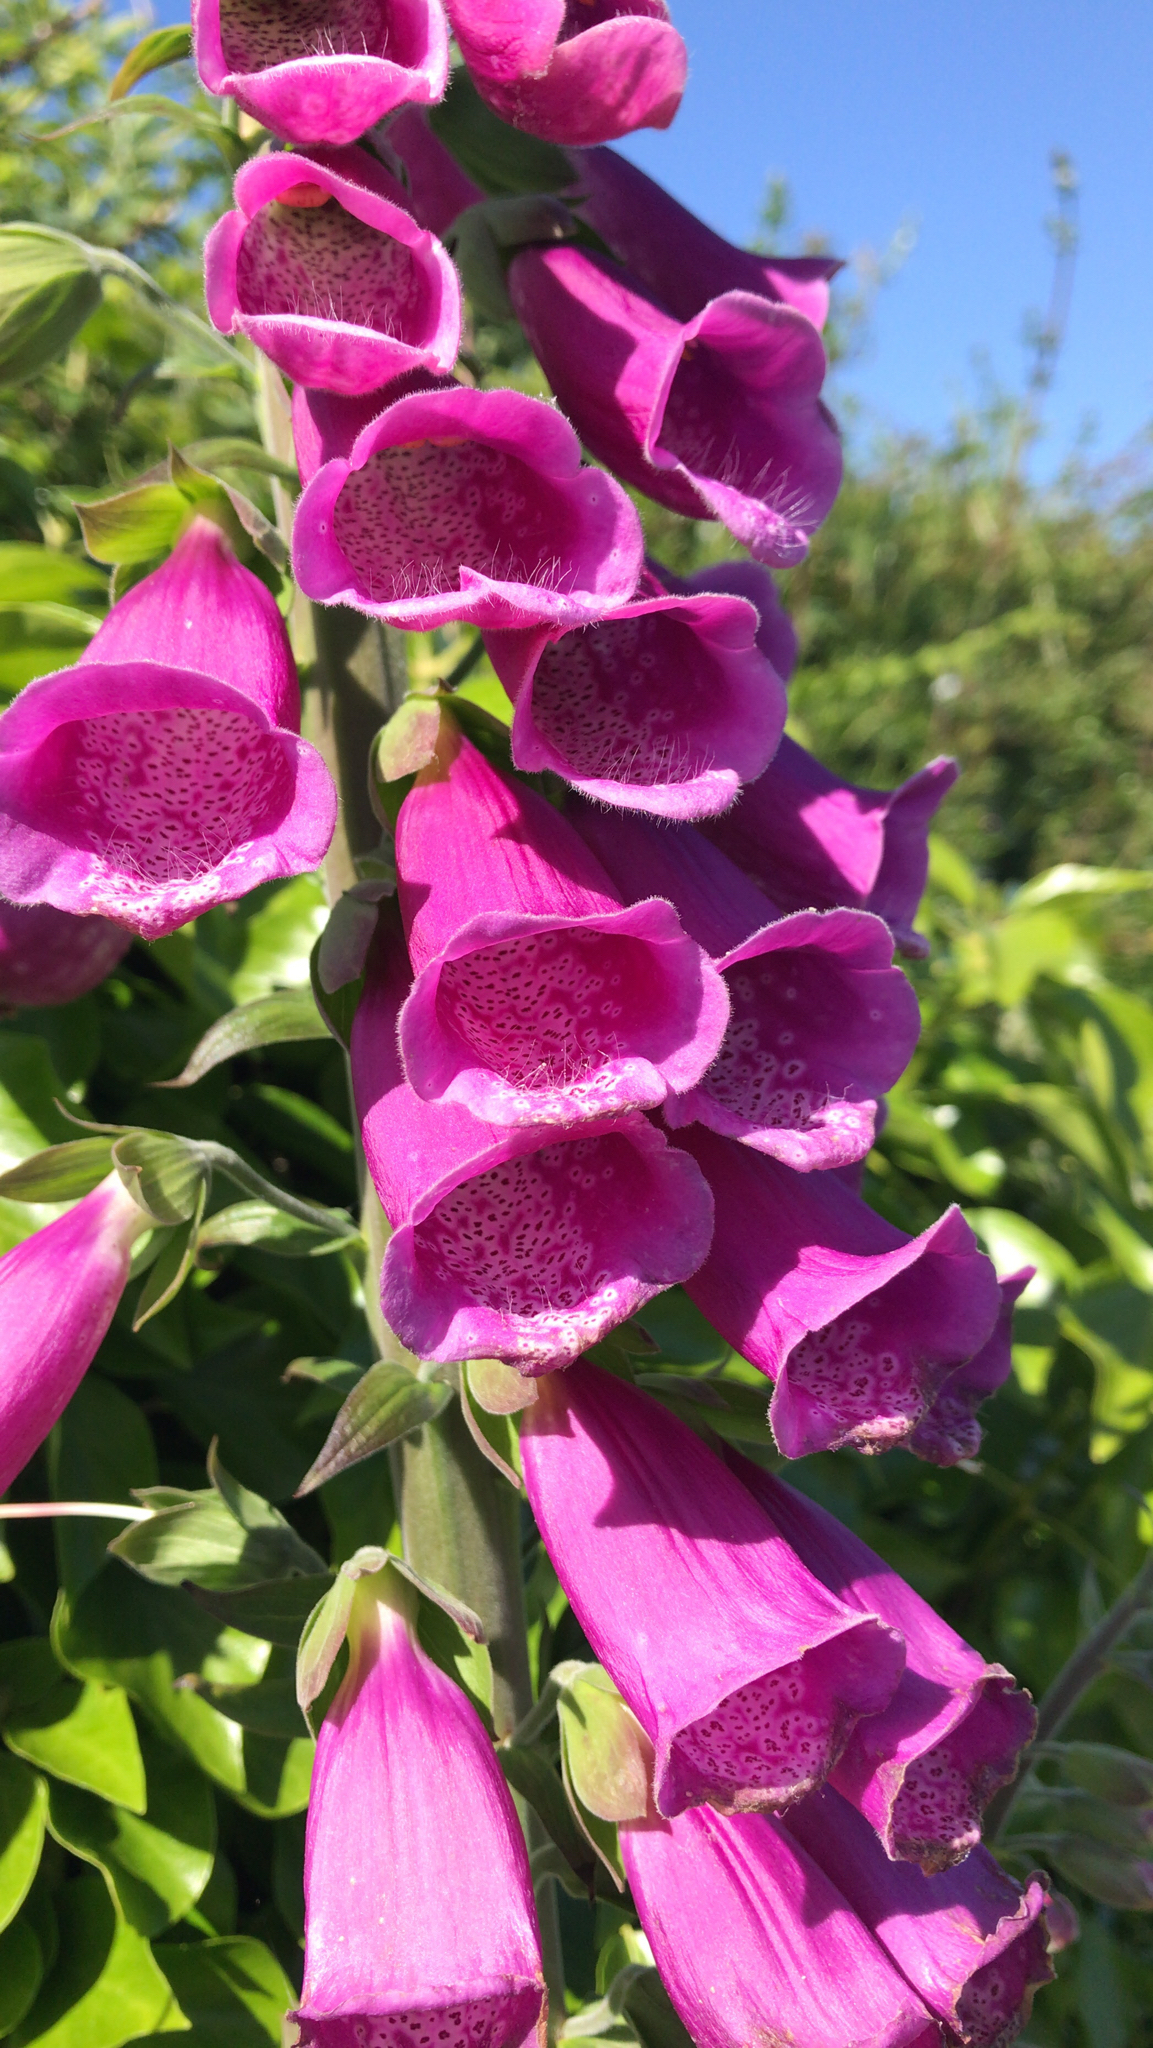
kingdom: Plantae
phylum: Tracheophyta
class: Magnoliopsida
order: Lamiales
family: Plantaginaceae
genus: Digitalis
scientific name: Digitalis purpurea
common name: Foxglove
